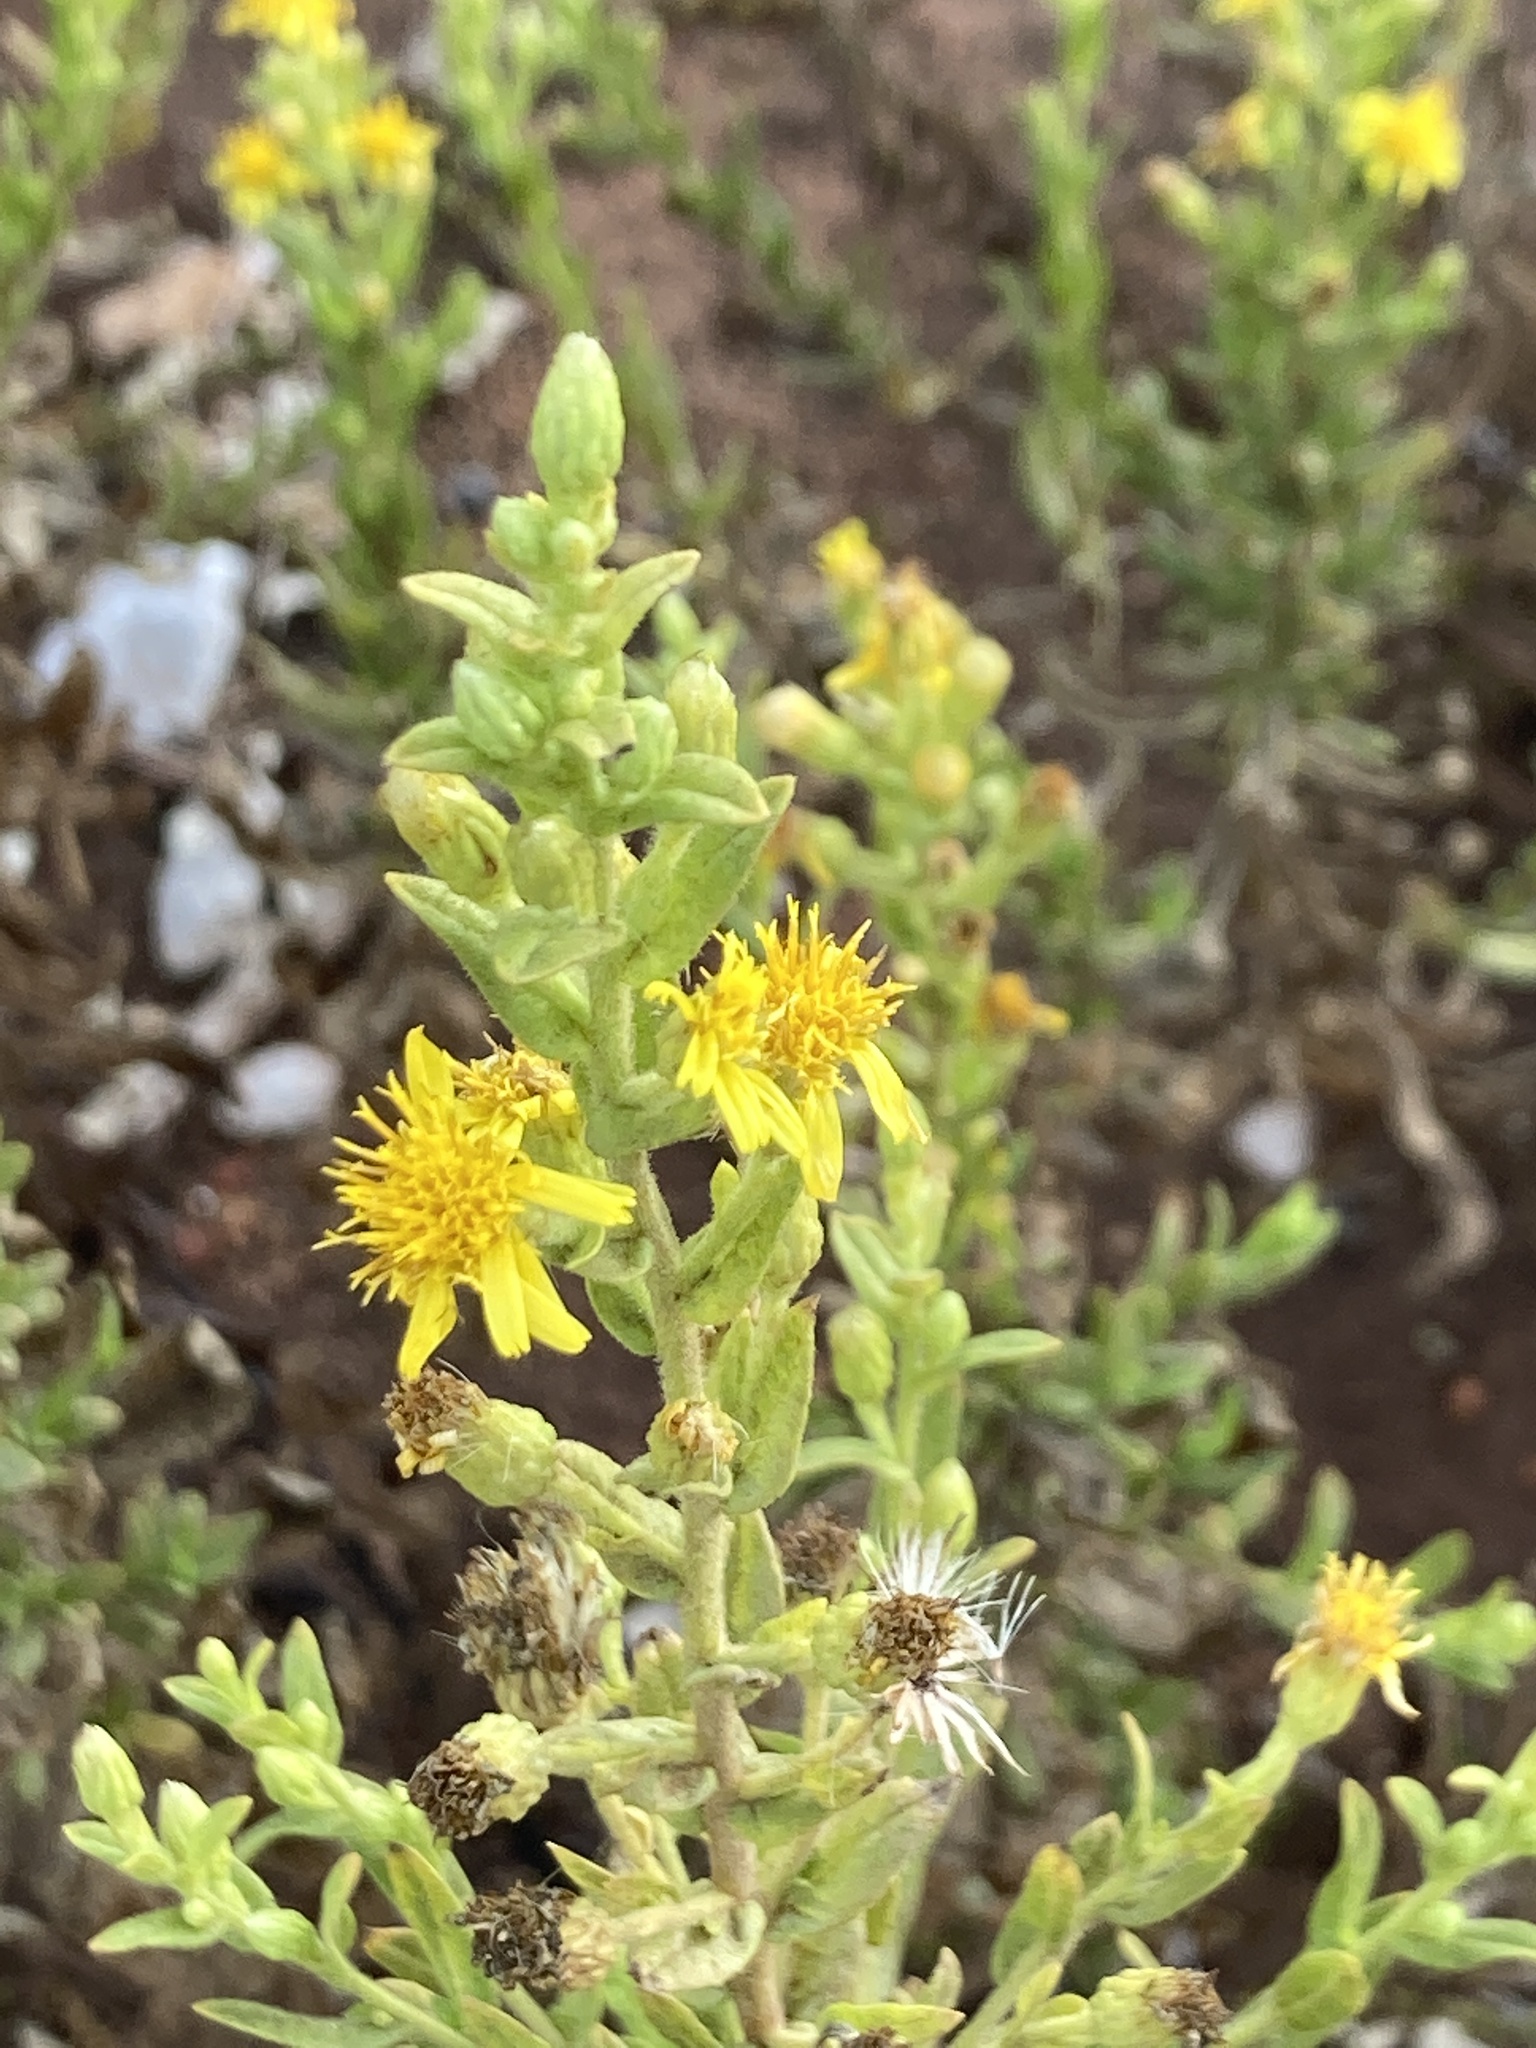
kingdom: Plantae
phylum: Tracheophyta
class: Magnoliopsida
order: Asterales
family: Asteraceae
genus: Dittrichia
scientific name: Dittrichia viscosa
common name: Woody fleabane
